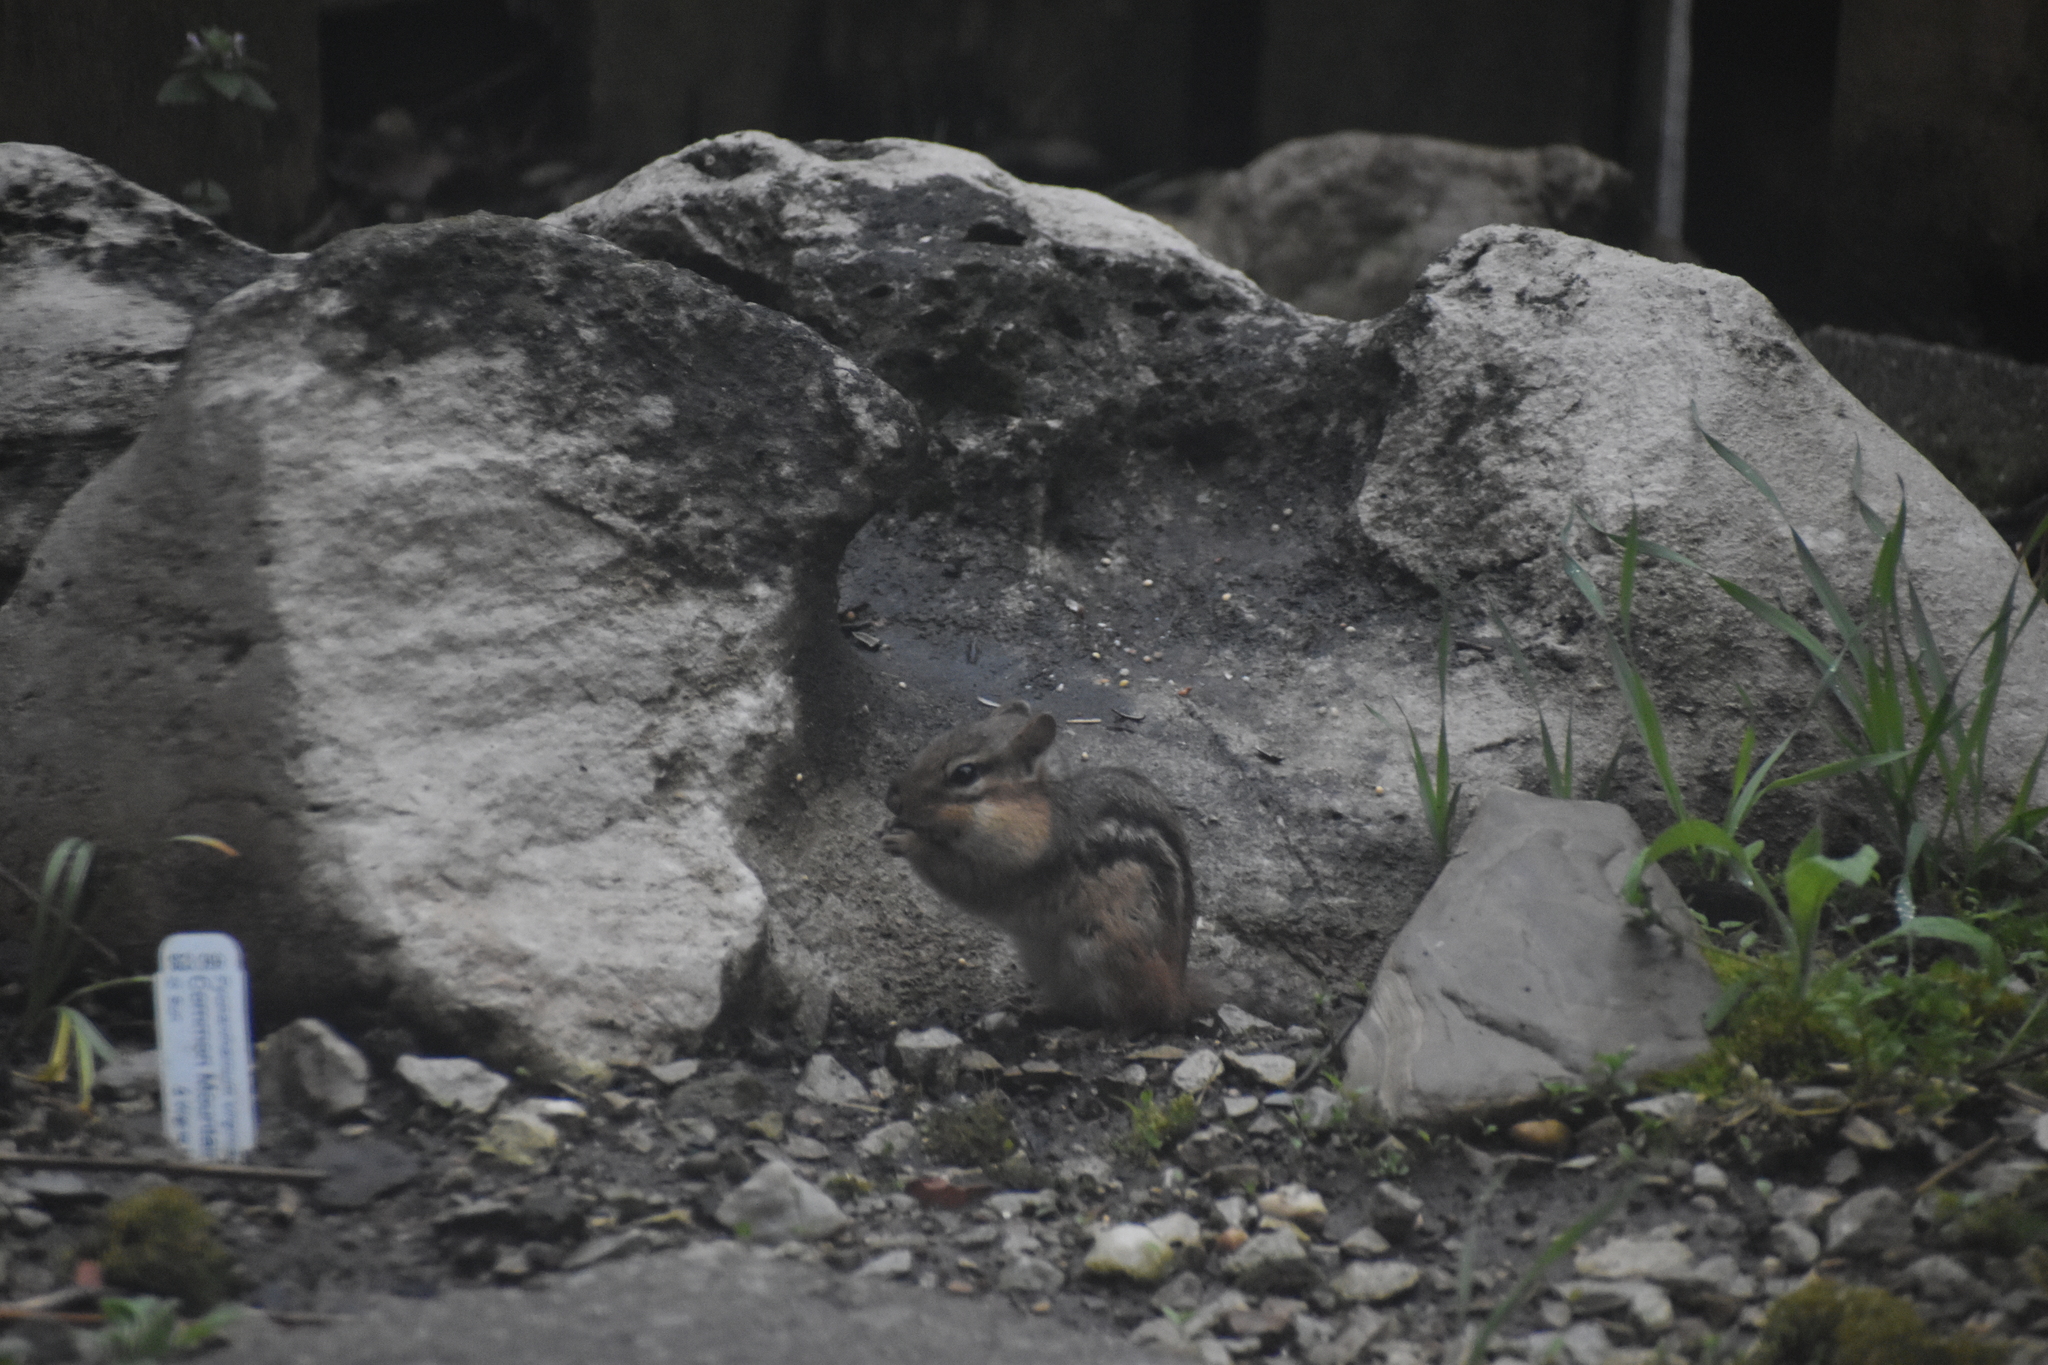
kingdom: Animalia
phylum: Chordata
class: Mammalia
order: Rodentia
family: Sciuridae
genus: Tamias
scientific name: Tamias striatus
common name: Eastern chipmunk
